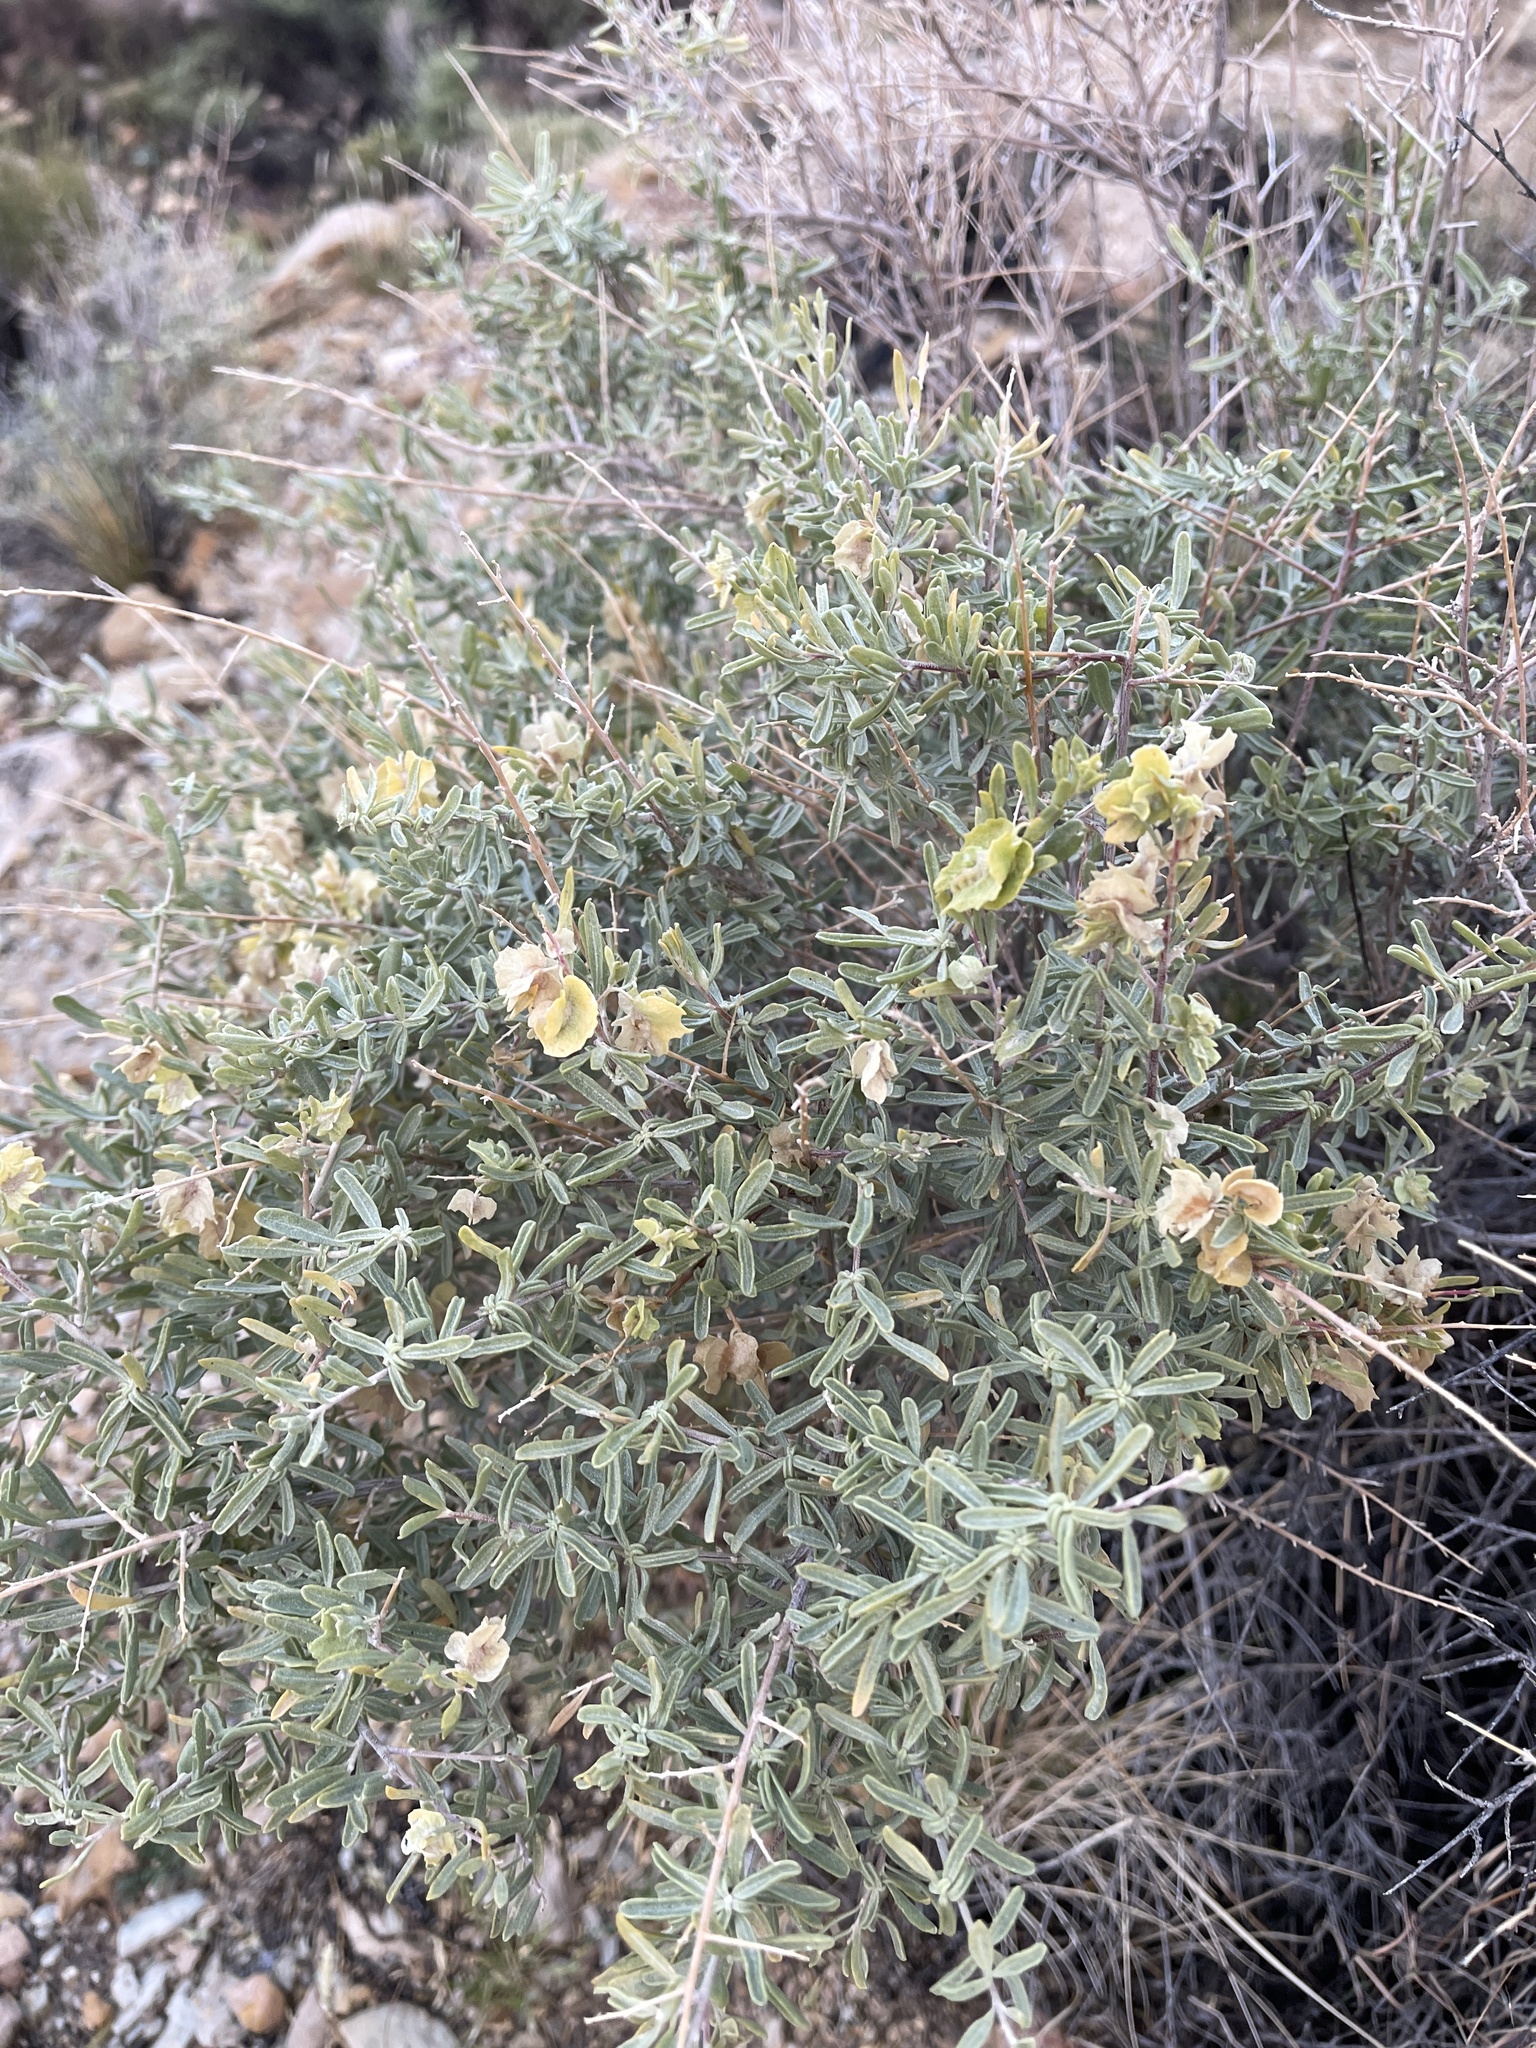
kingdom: Plantae
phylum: Tracheophyta
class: Magnoliopsida
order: Caryophyllales
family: Amaranthaceae
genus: Atriplex
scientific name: Atriplex canescens
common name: Four-wing saltbush
